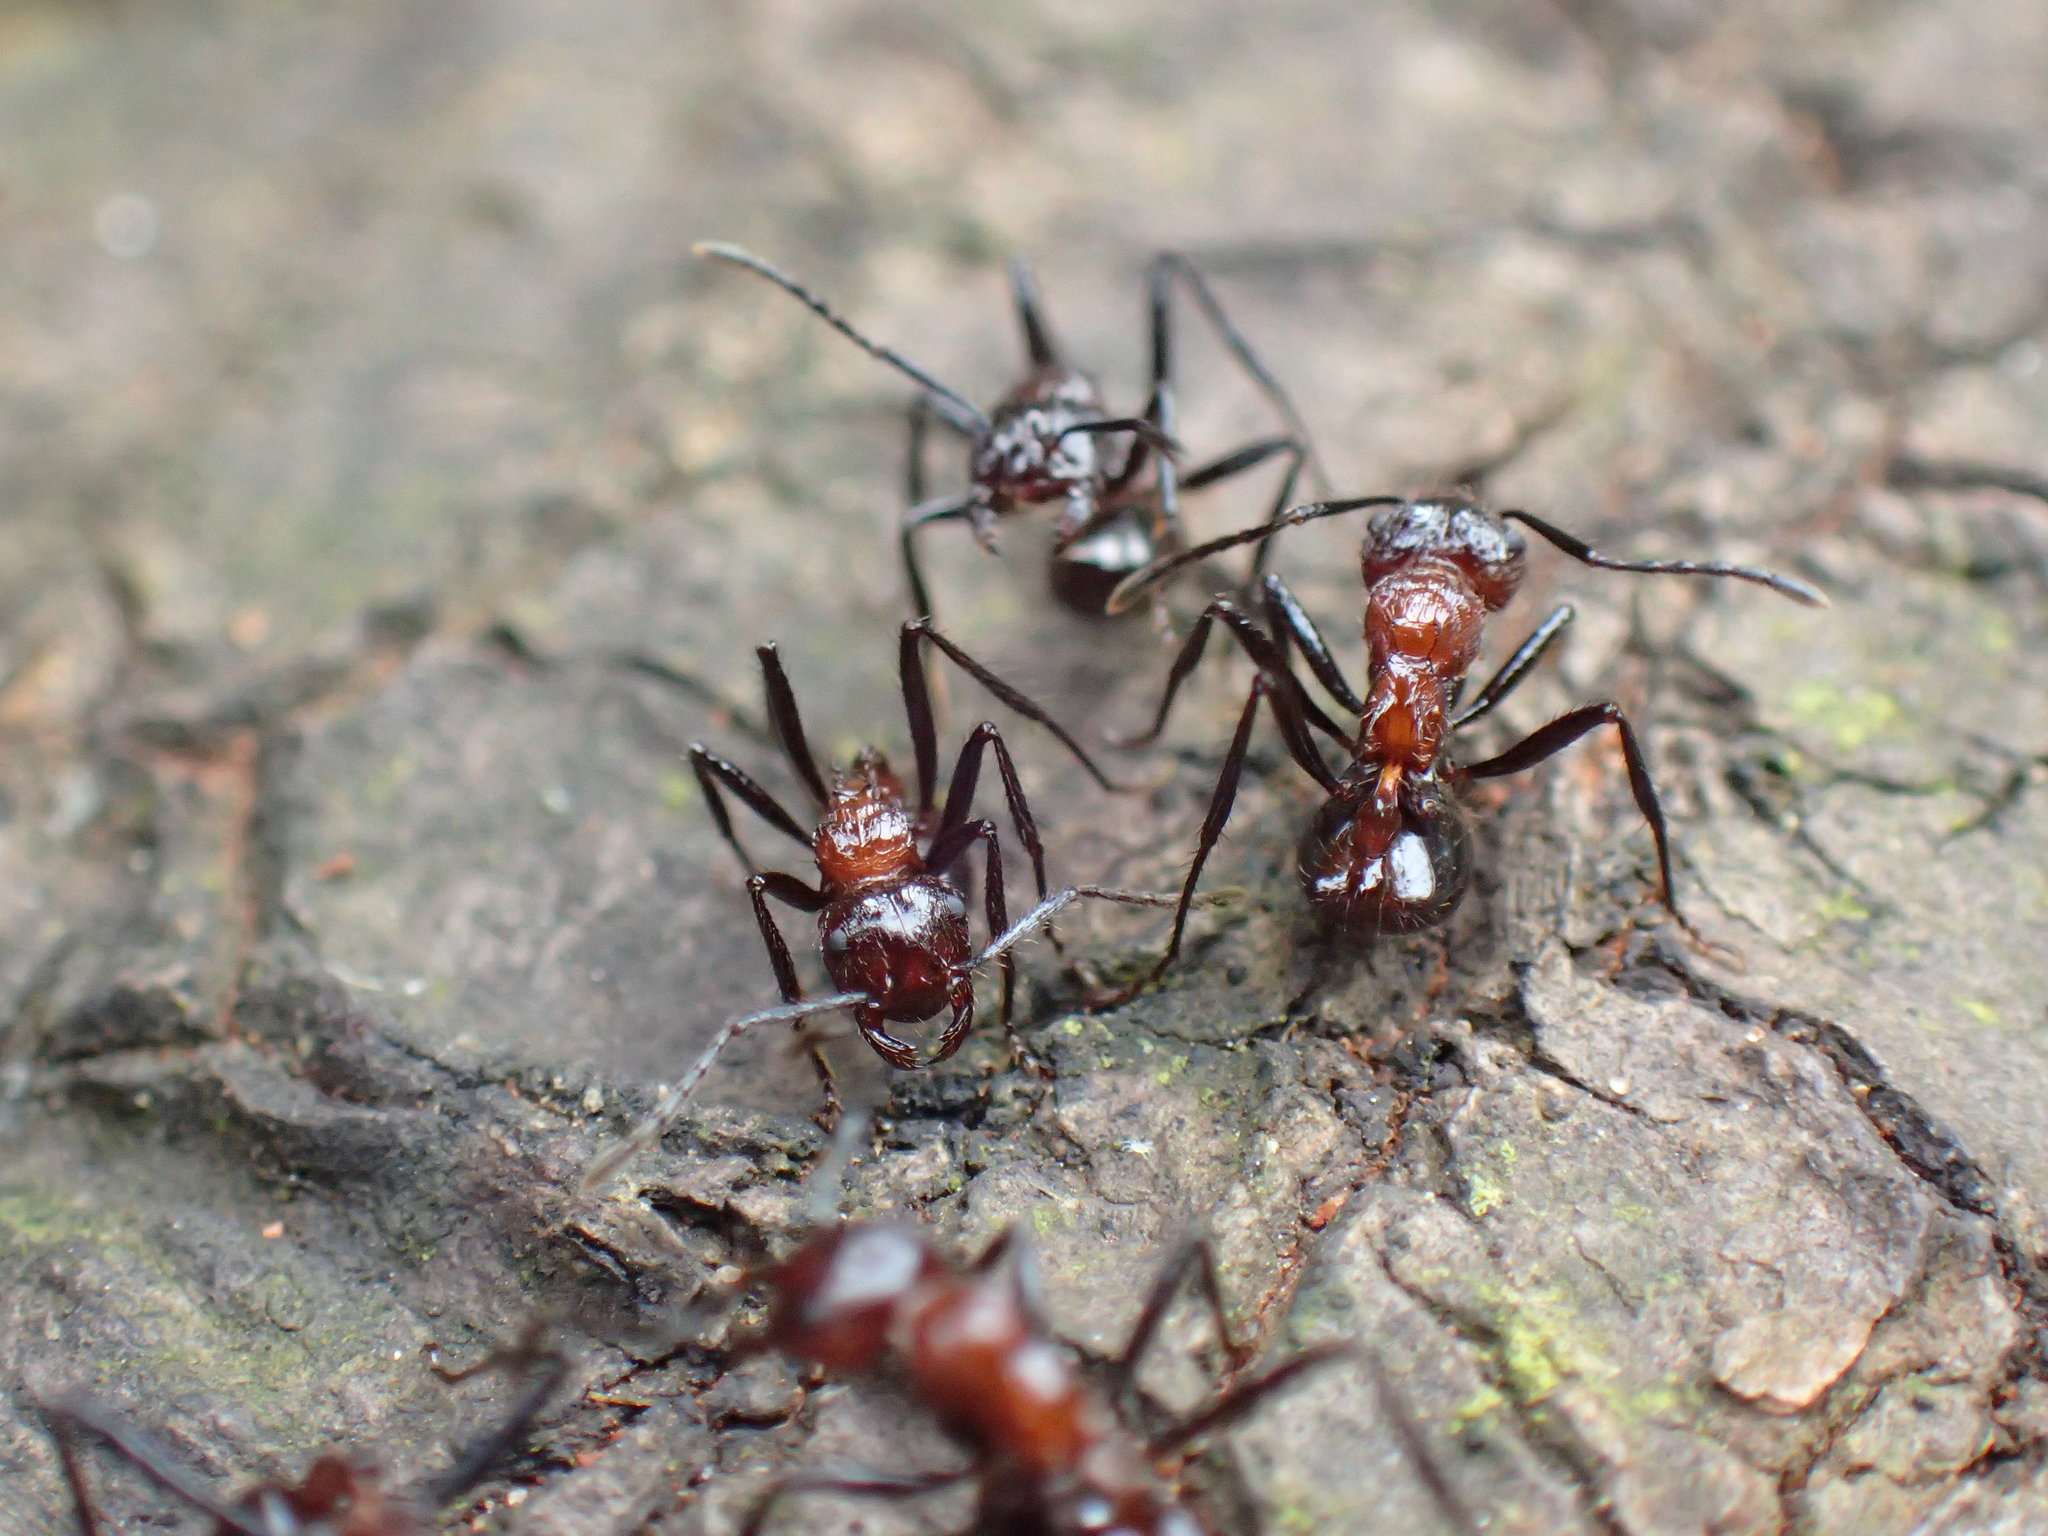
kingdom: Animalia
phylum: Arthropoda
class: Insecta
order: Hymenoptera
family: Formicidae
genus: Myrmicaria
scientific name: Myrmicaria natalensis
